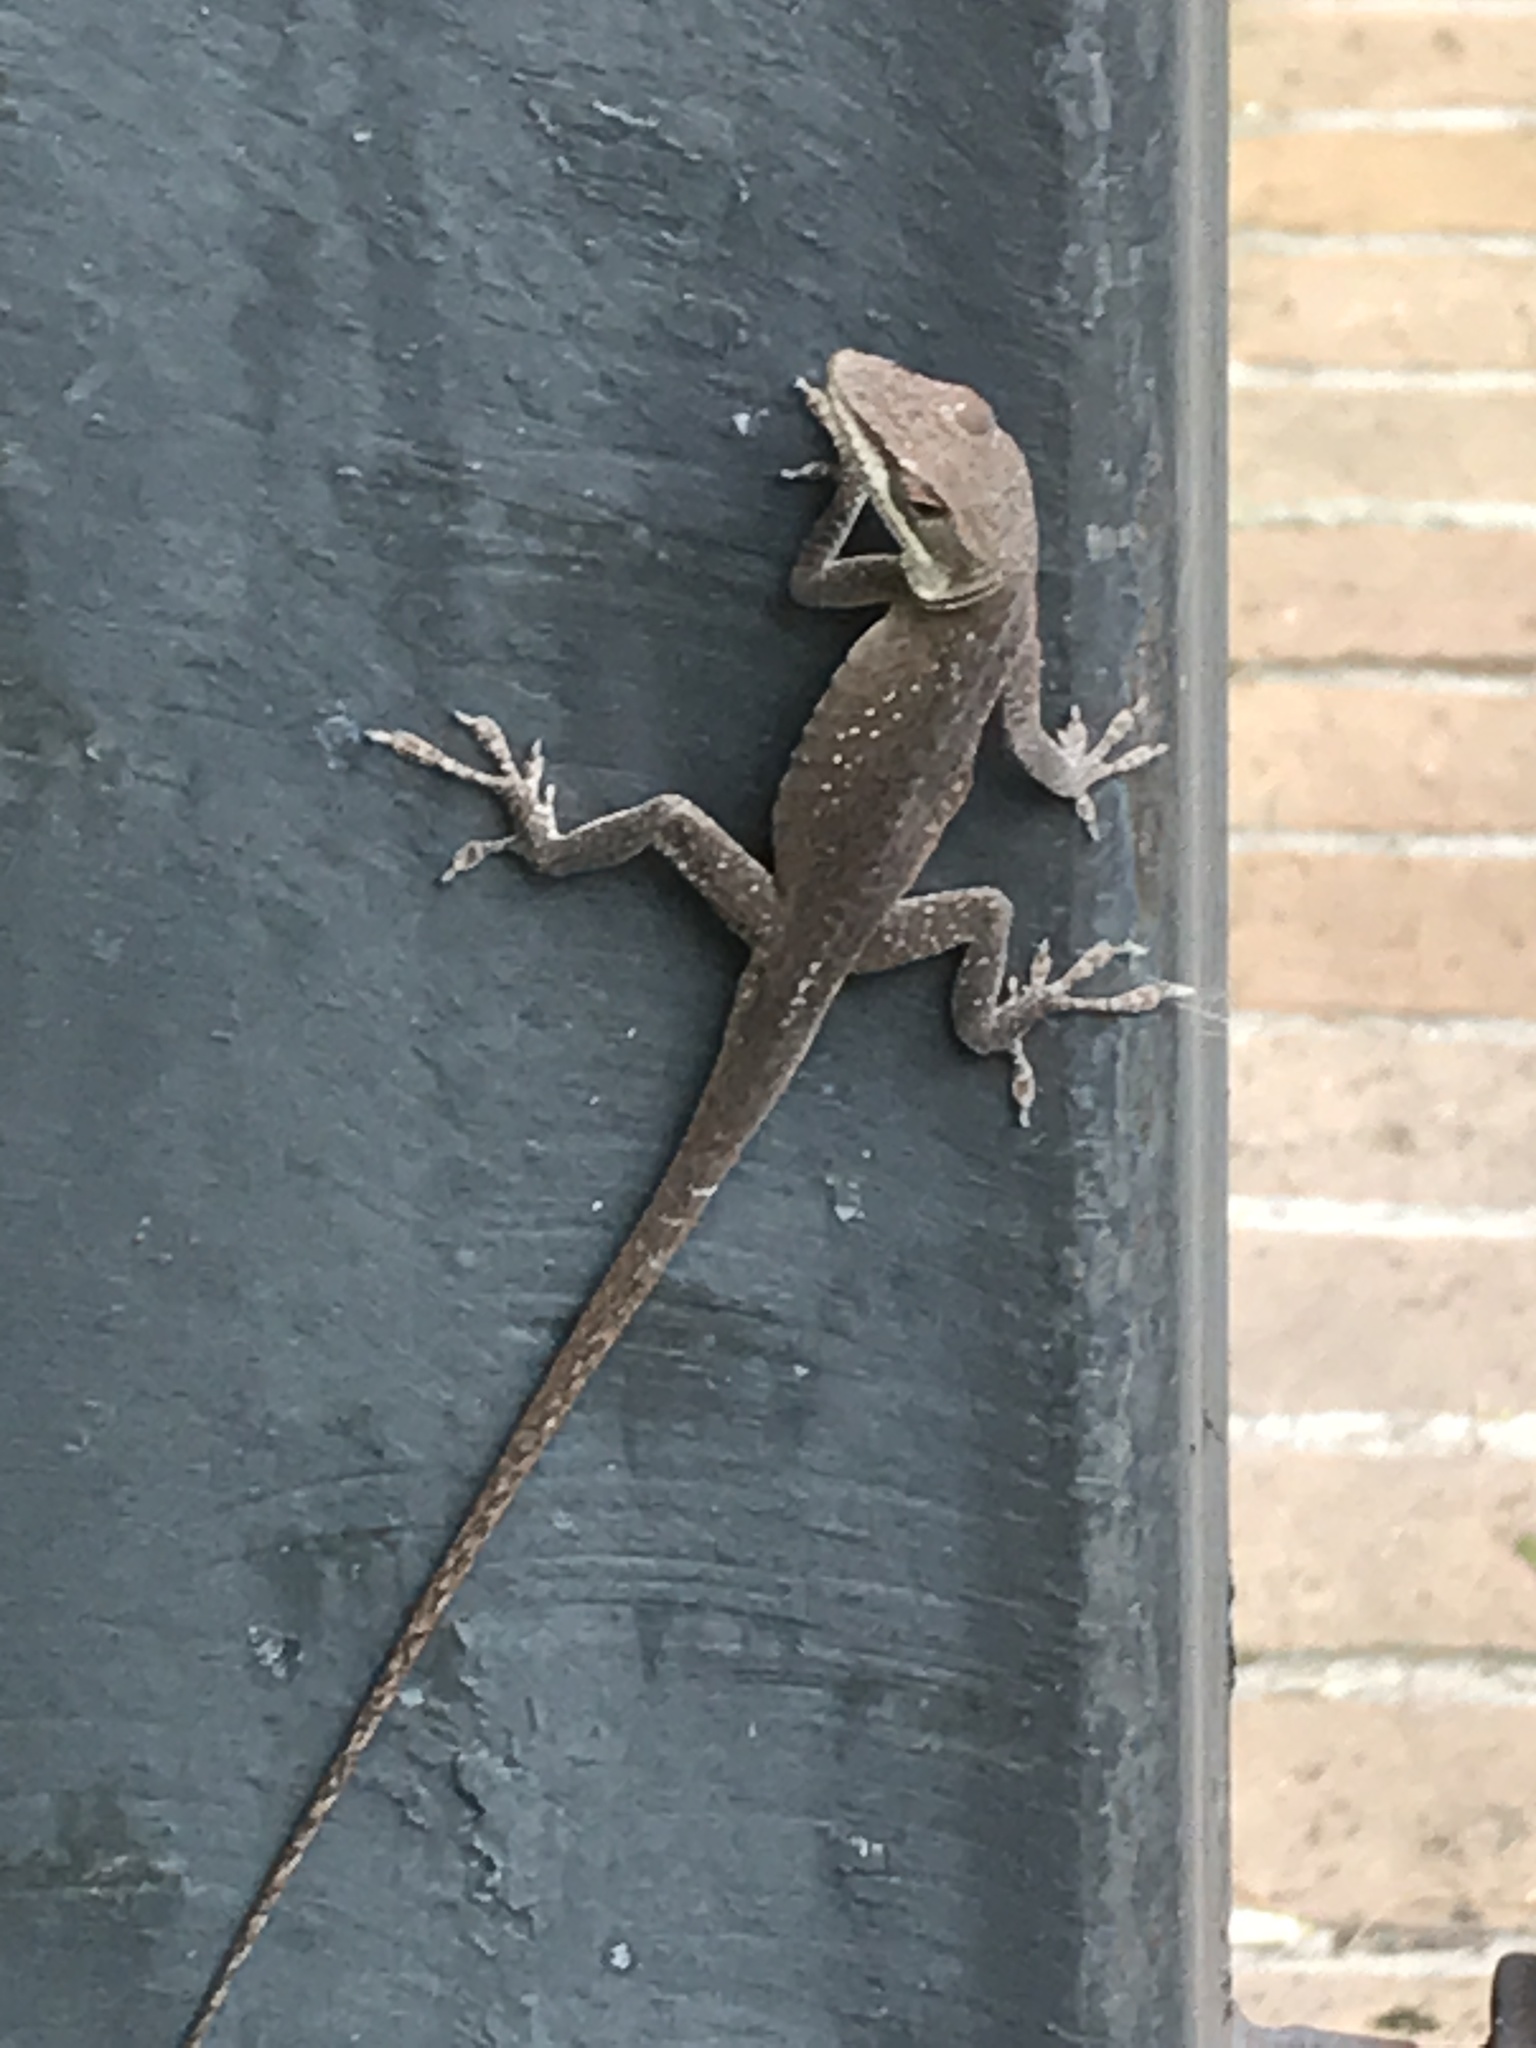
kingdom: Animalia
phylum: Chordata
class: Squamata
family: Dactyloidae
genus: Anolis
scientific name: Anolis carolinensis
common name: Green anole
